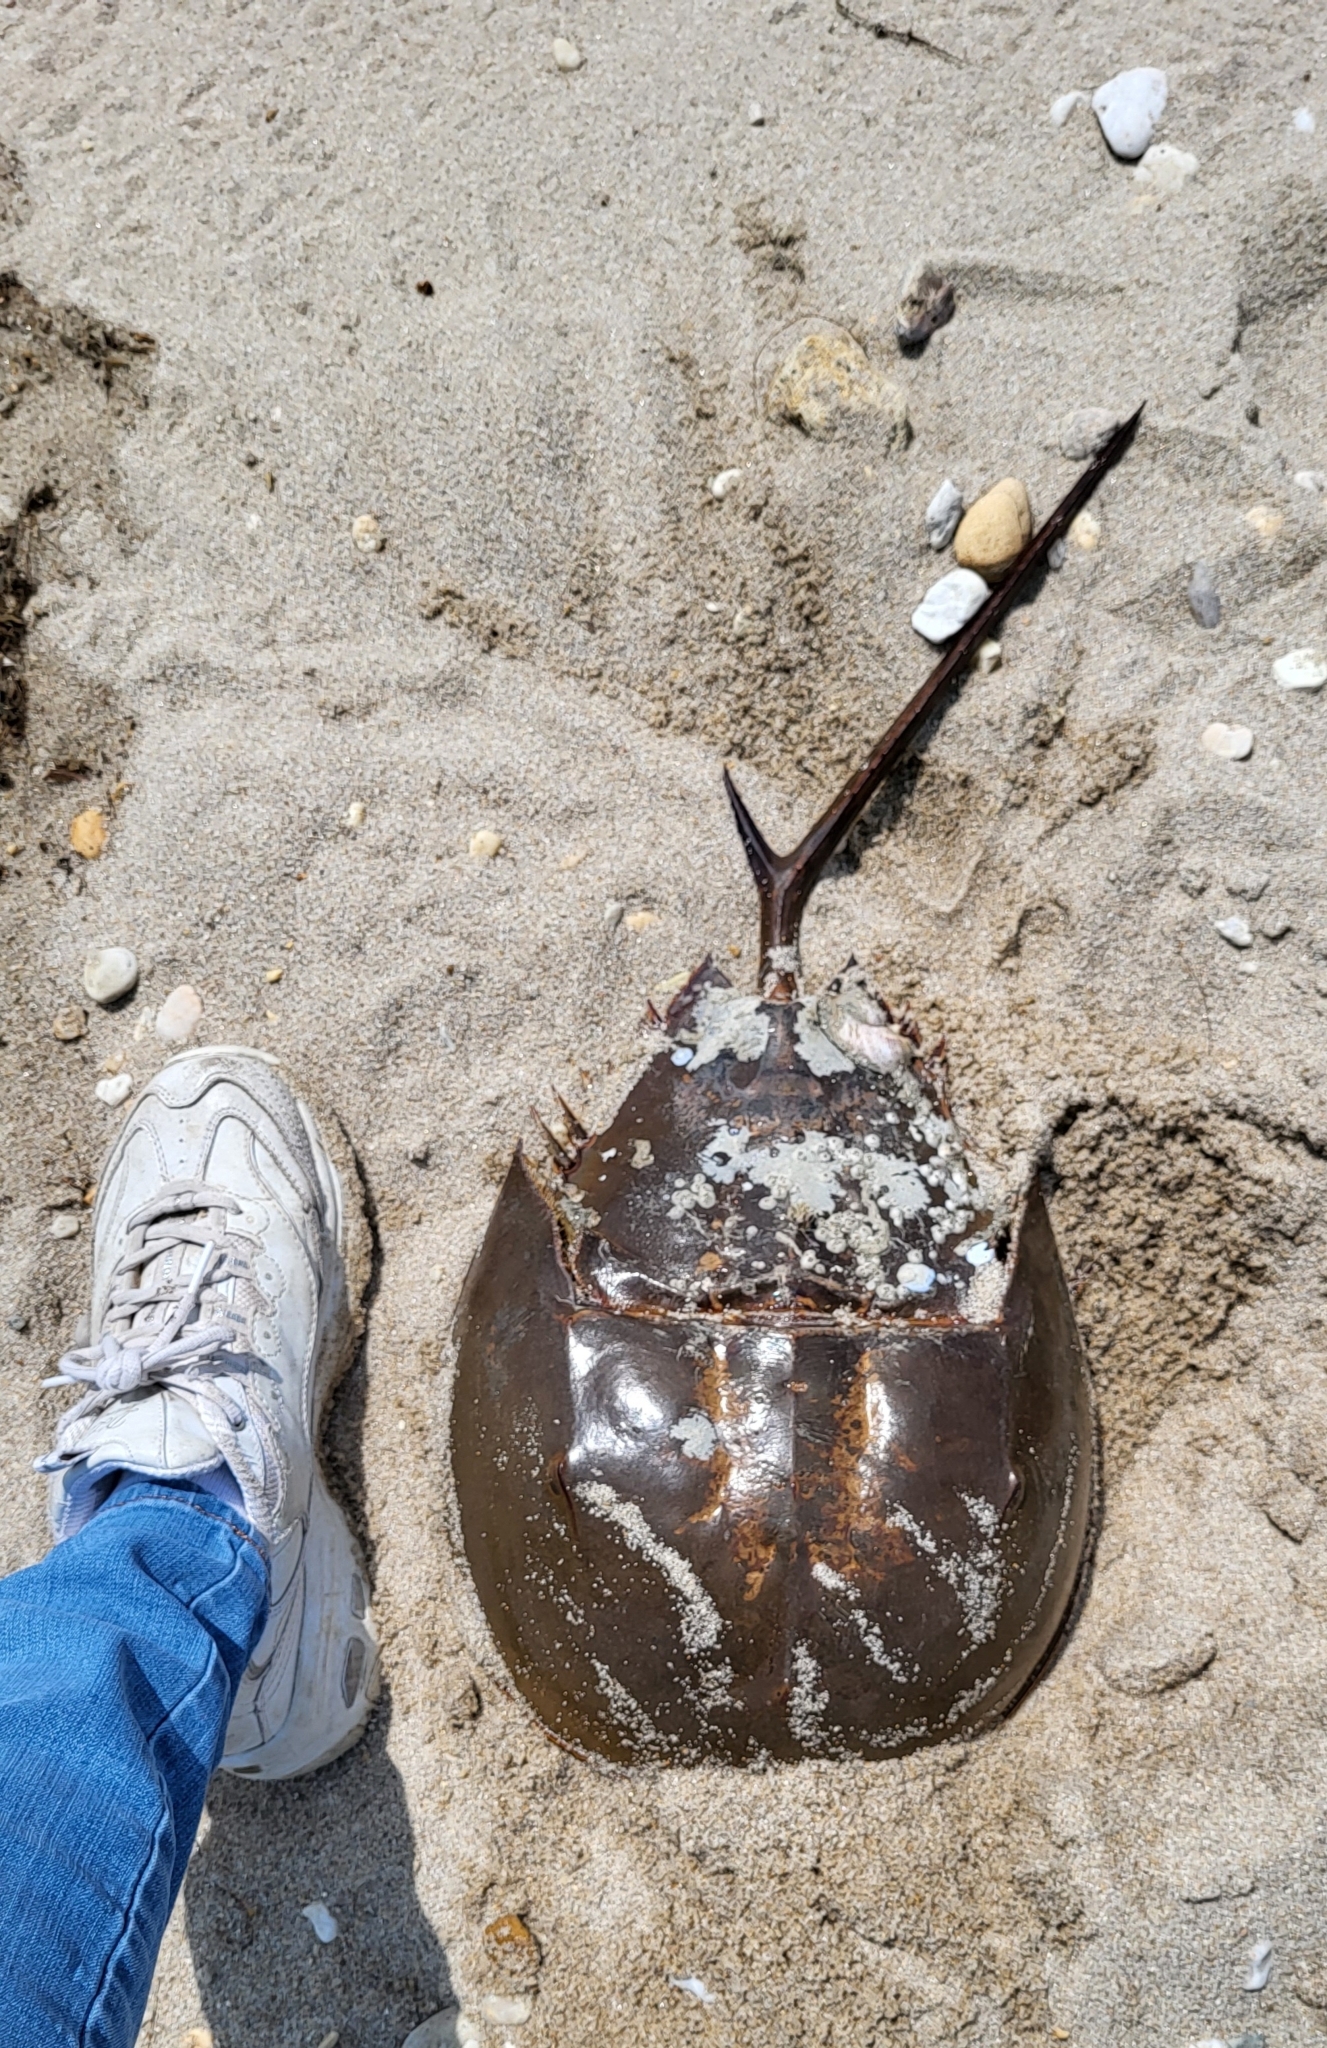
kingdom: Animalia
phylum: Arthropoda
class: Merostomata
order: Xiphosurida
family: Limulidae
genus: Limulus
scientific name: Limulus polyphemus
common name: Horseshoe crab
